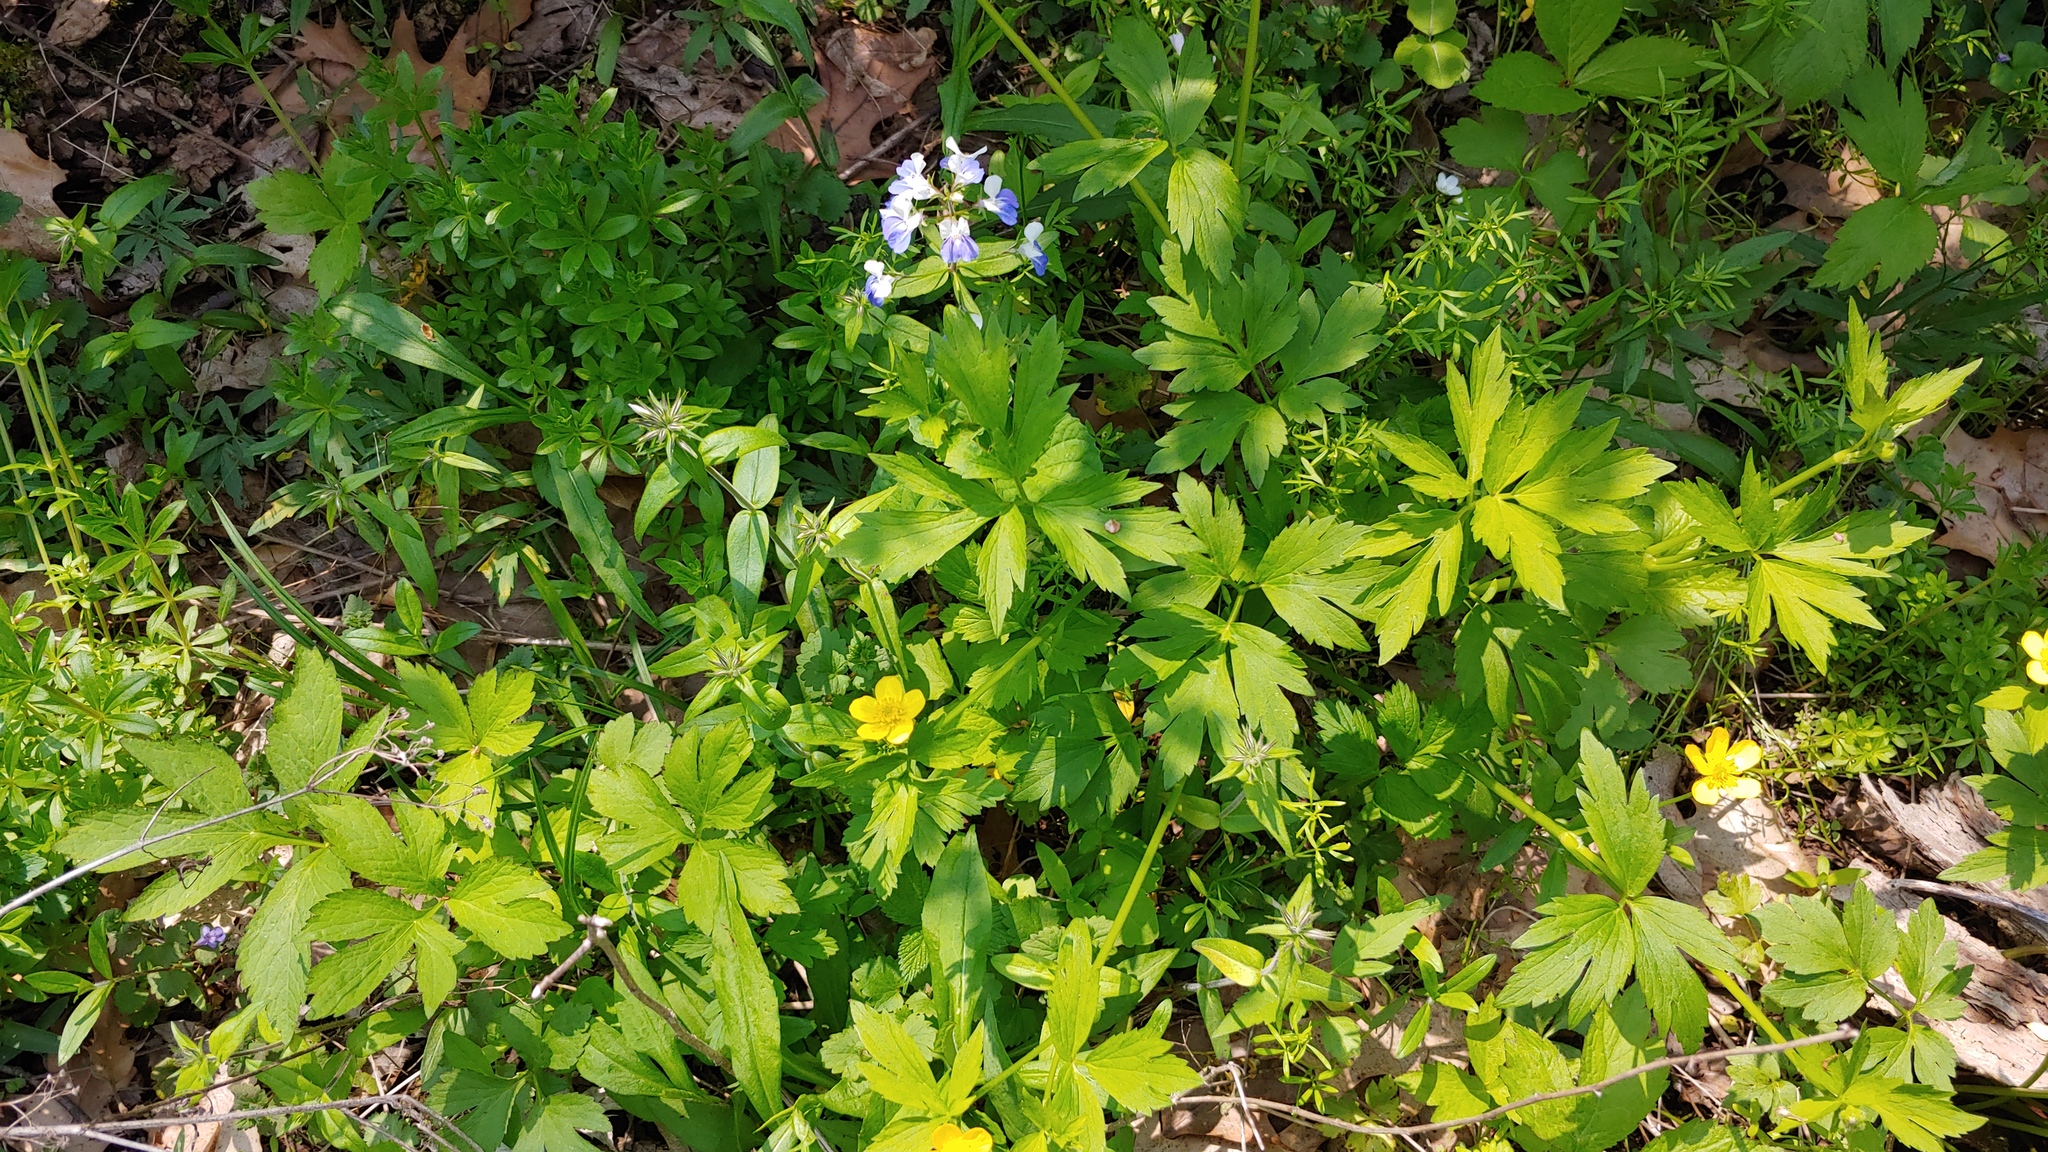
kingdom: Plantae
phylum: Tracheophyta
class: Magnoliopsida
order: Ranunculales
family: Ranunculaceae
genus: Ranunculus
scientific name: Ranunculus hispidus
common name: Bristly buttercup
